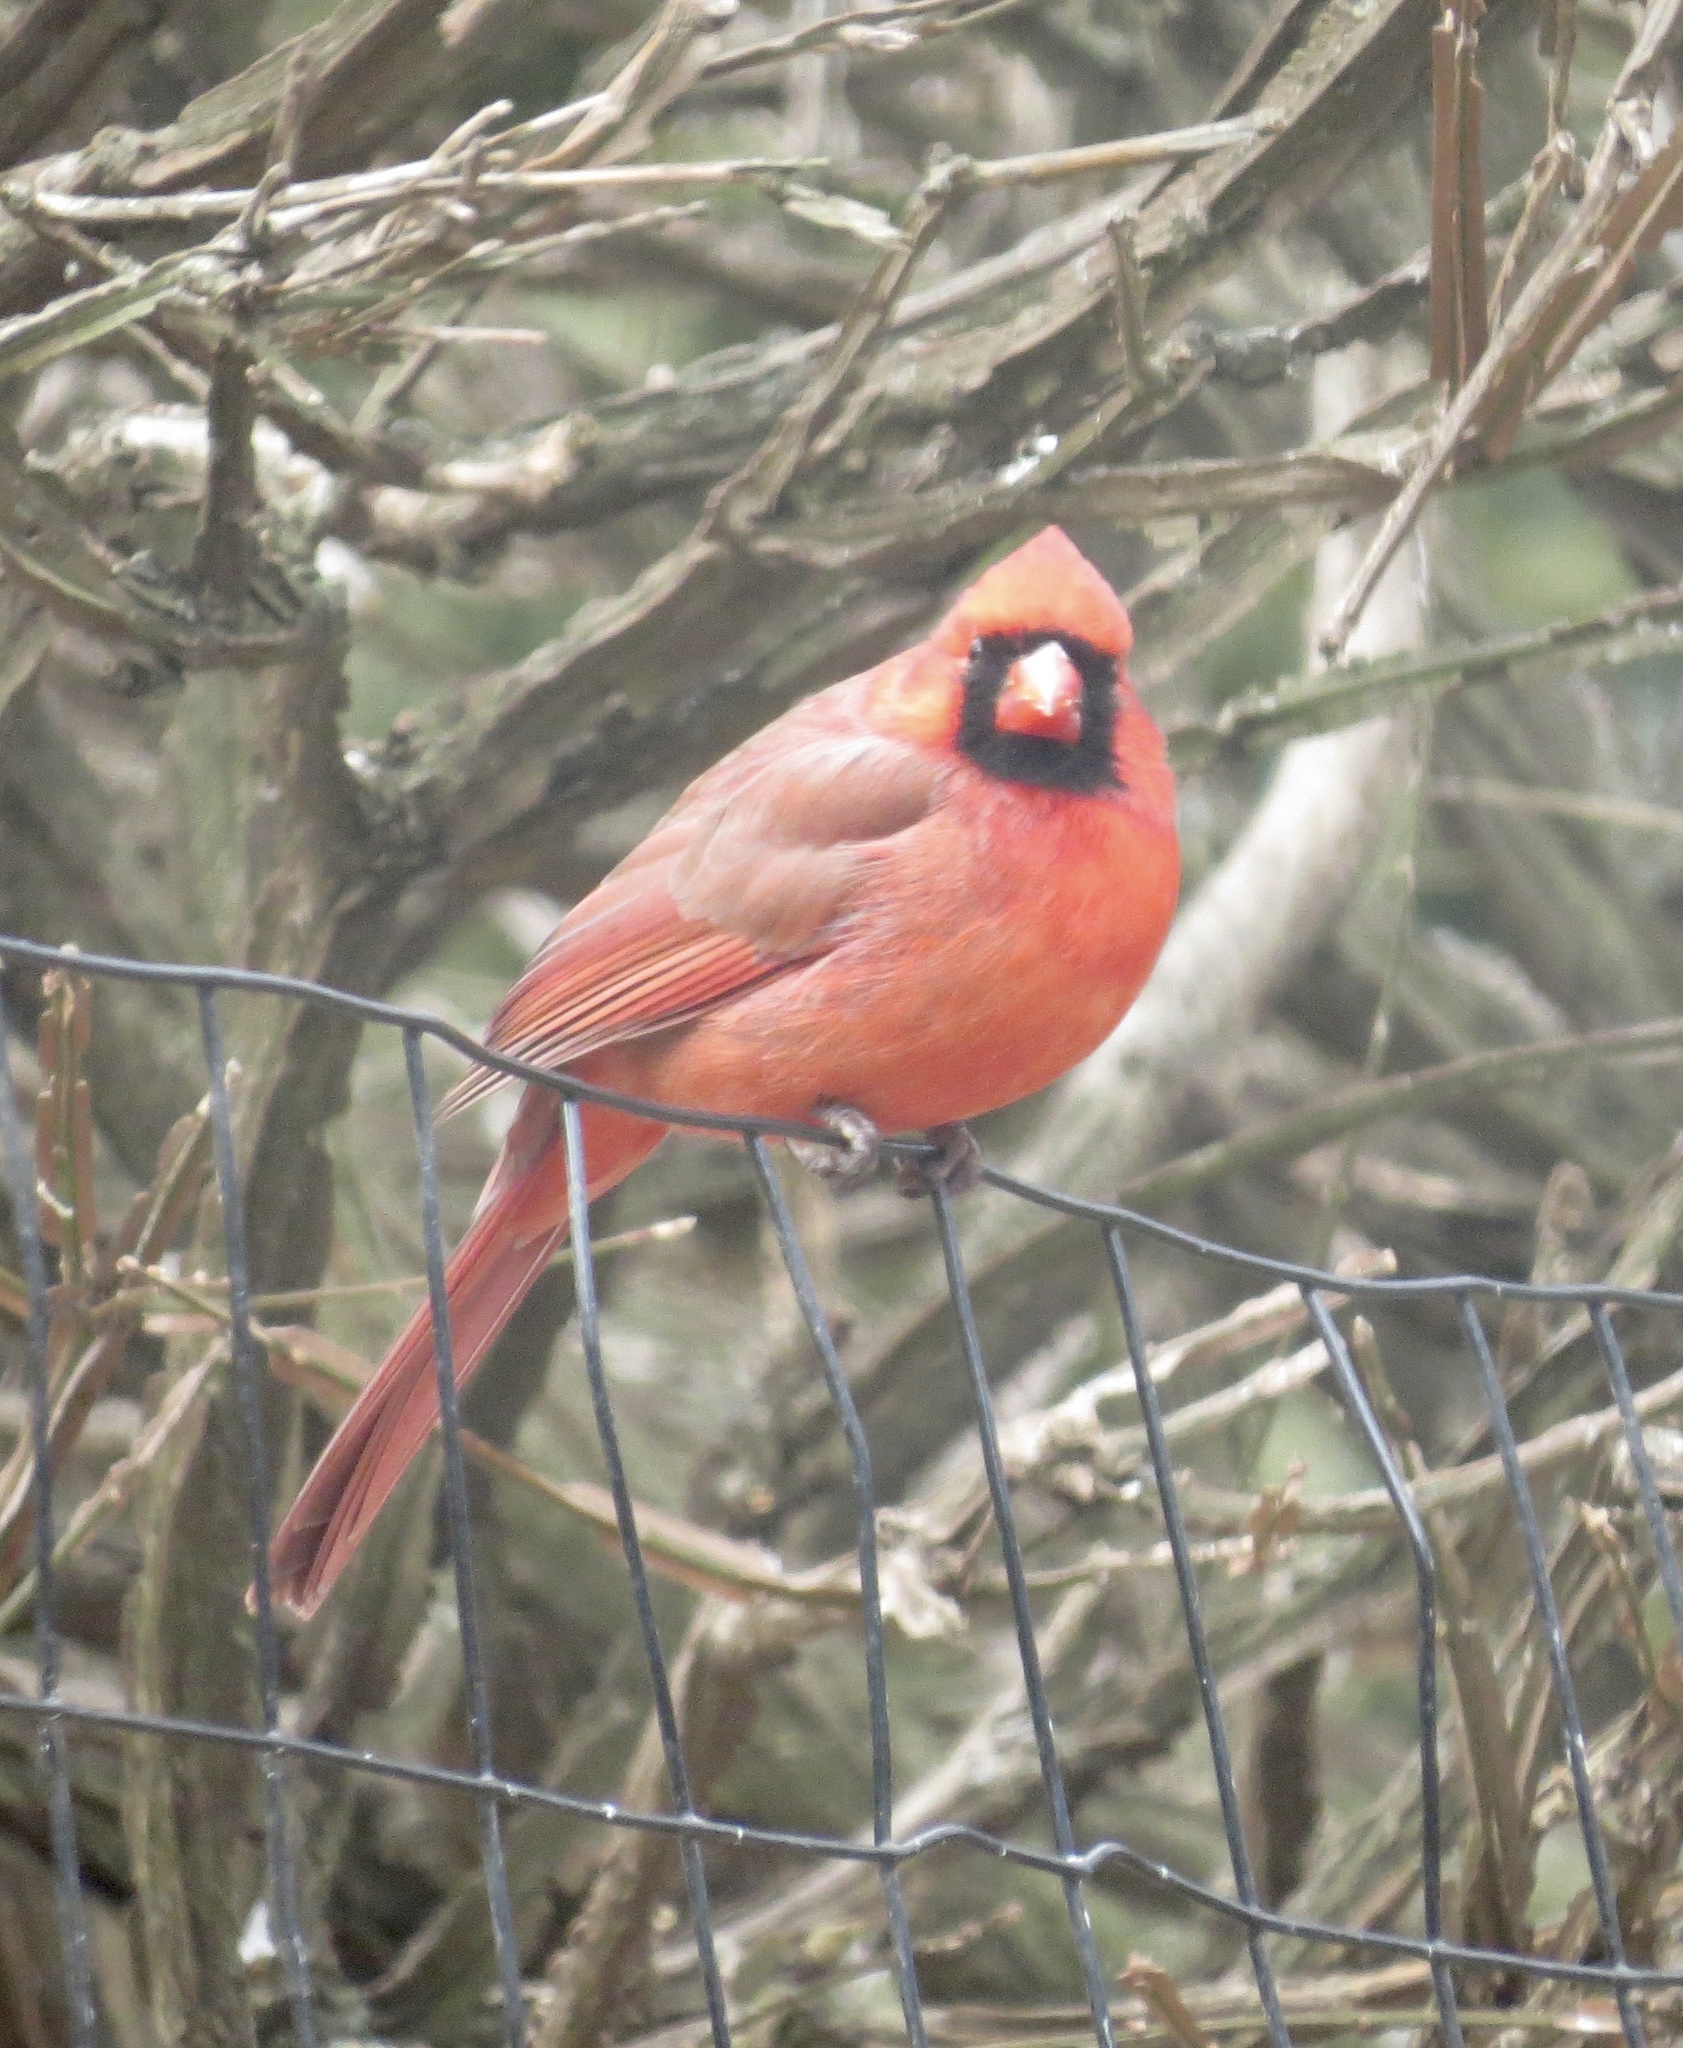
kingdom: Animalia
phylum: Chordata
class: Aves
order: Passeriformes
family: Cardinalidae
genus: Cardinalis
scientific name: Cardinalis cardinalis
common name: Northern cardinal
